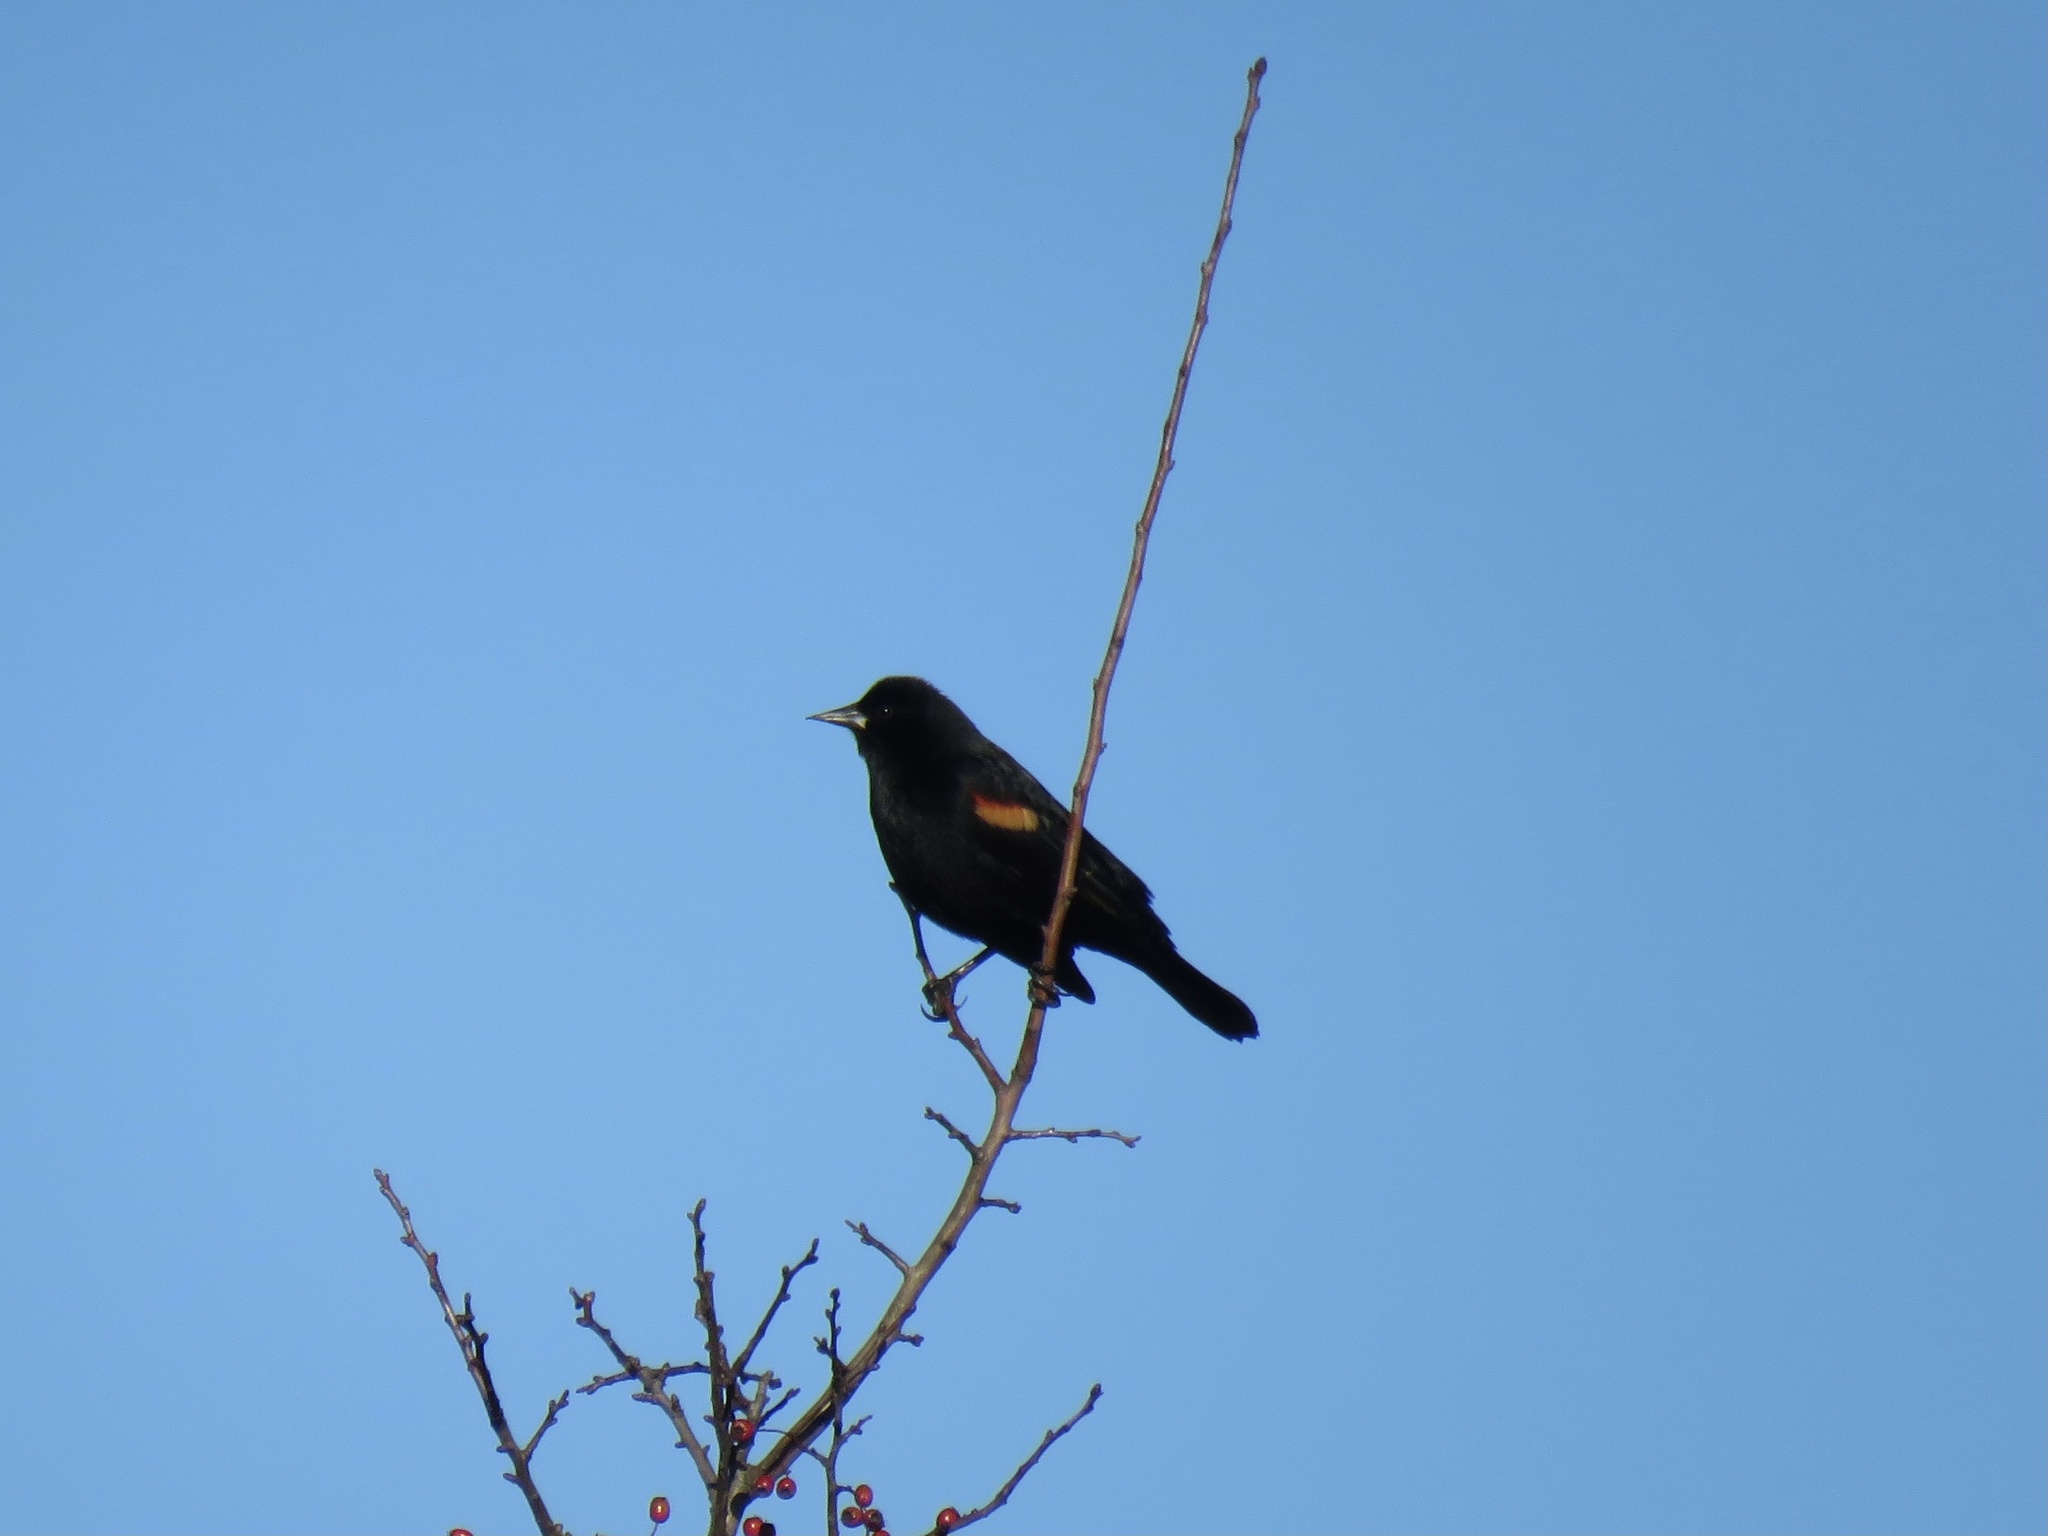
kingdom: Animalia
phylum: Chordata
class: Aves
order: Passeriformes
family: Icteridae
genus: Agelaius
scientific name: Agelaius phoeniceus
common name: Red-winged blackbird
